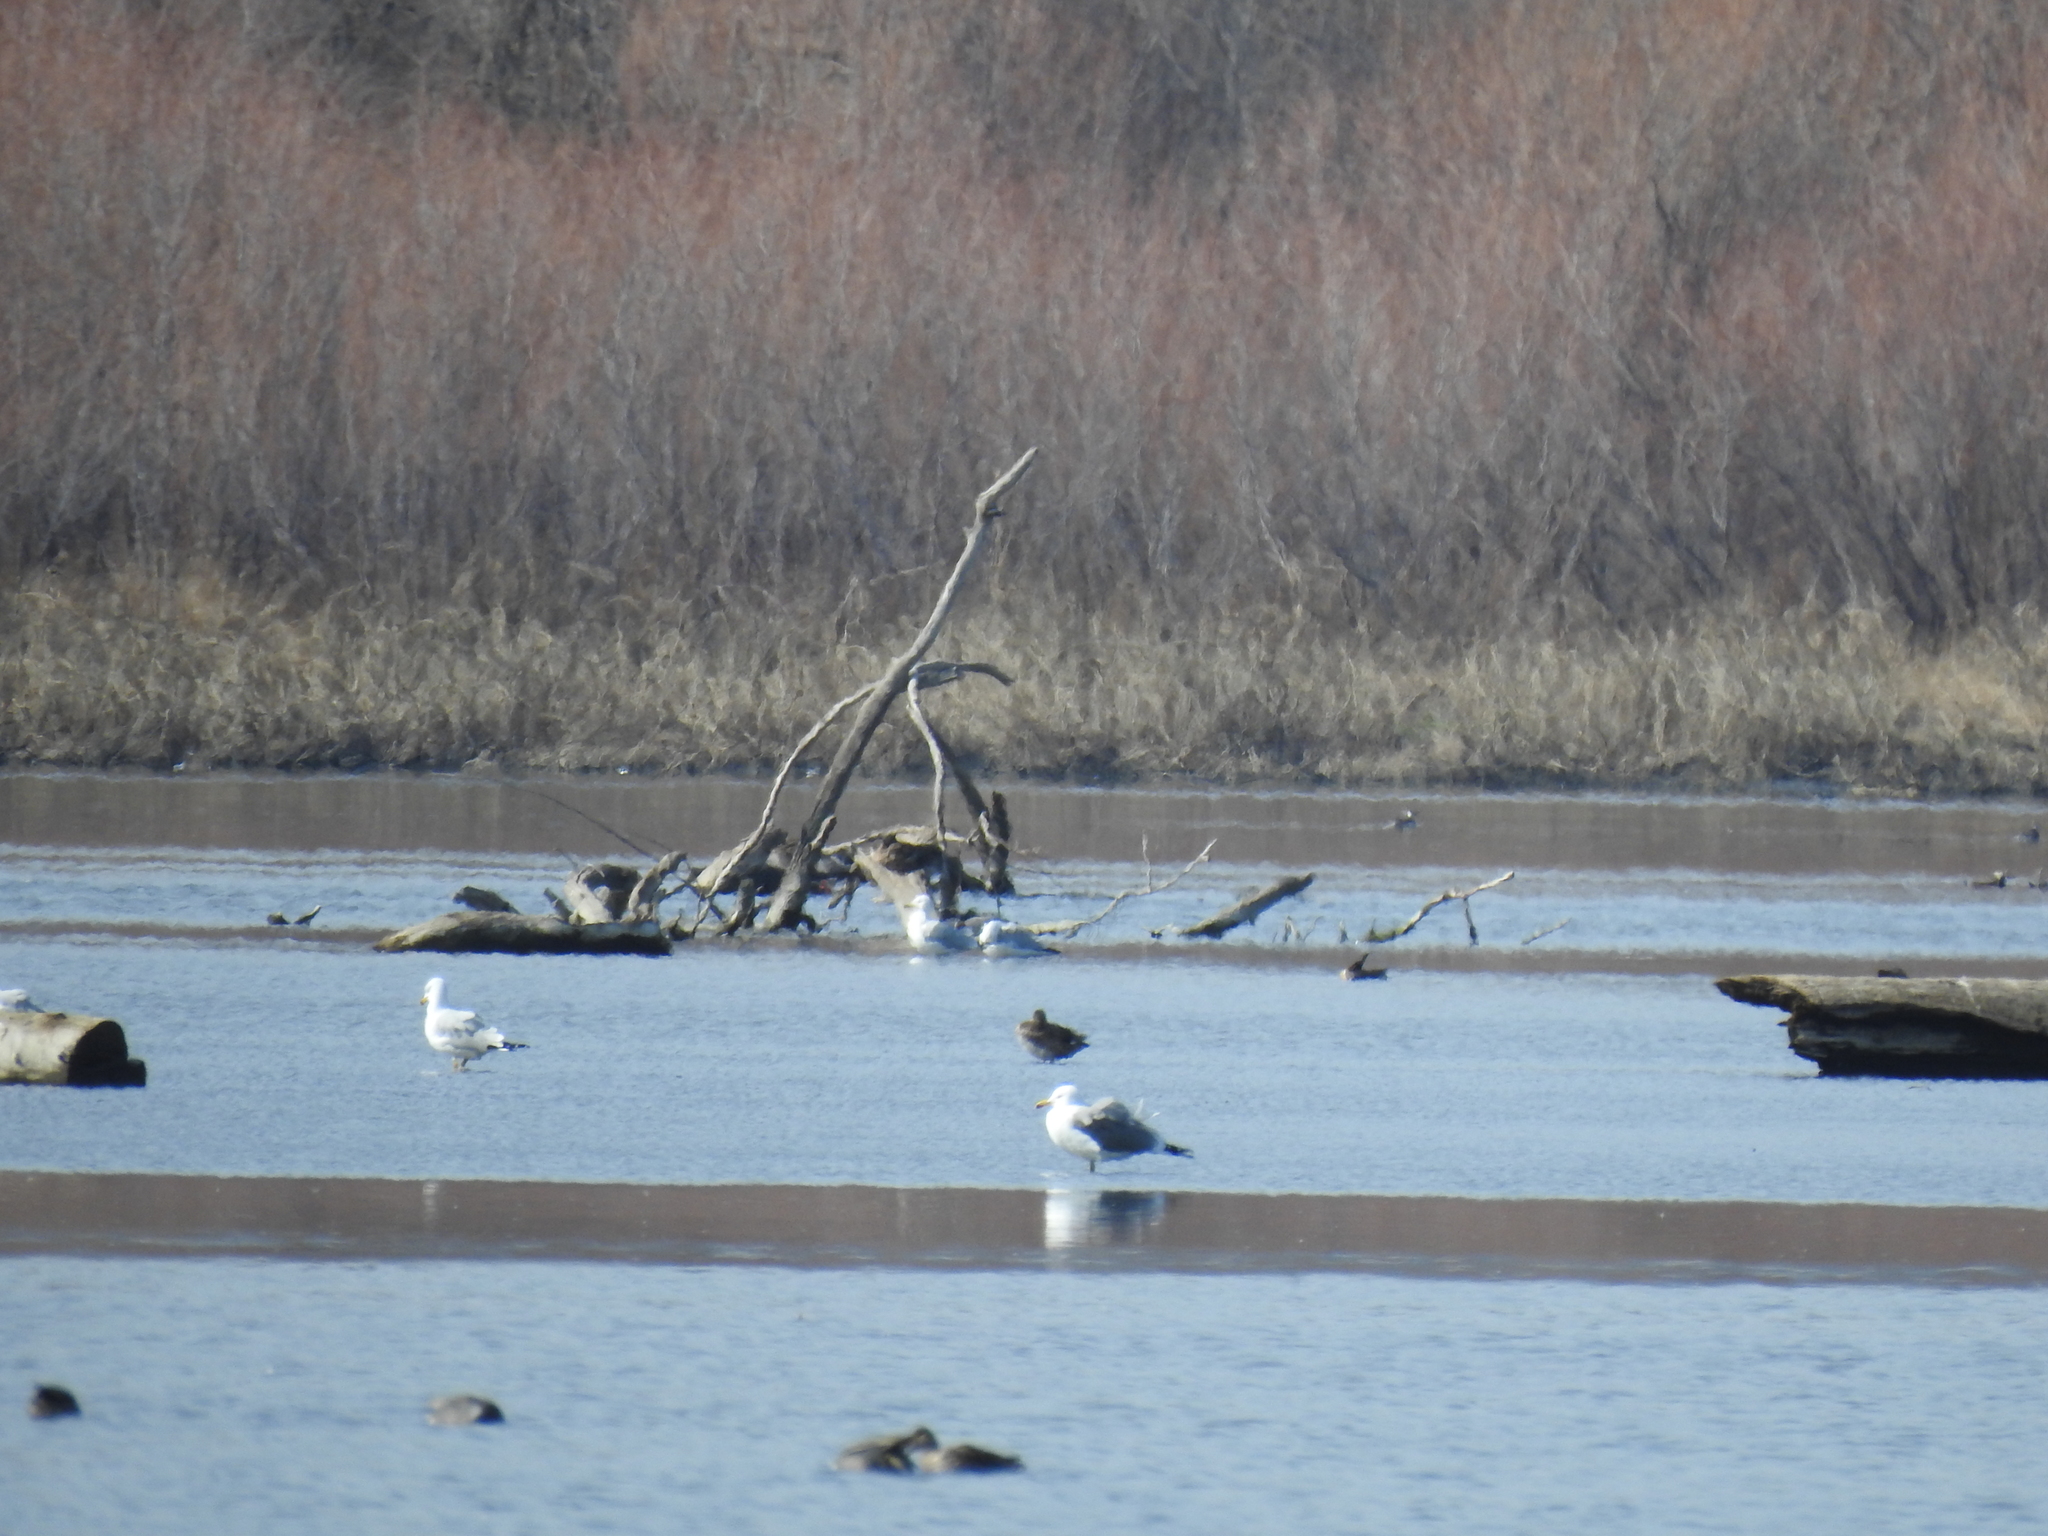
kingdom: Animalia
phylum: Chordata
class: Aves
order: Charadriiformes
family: Laridae
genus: Larus
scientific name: Larus californicus
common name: California gull
